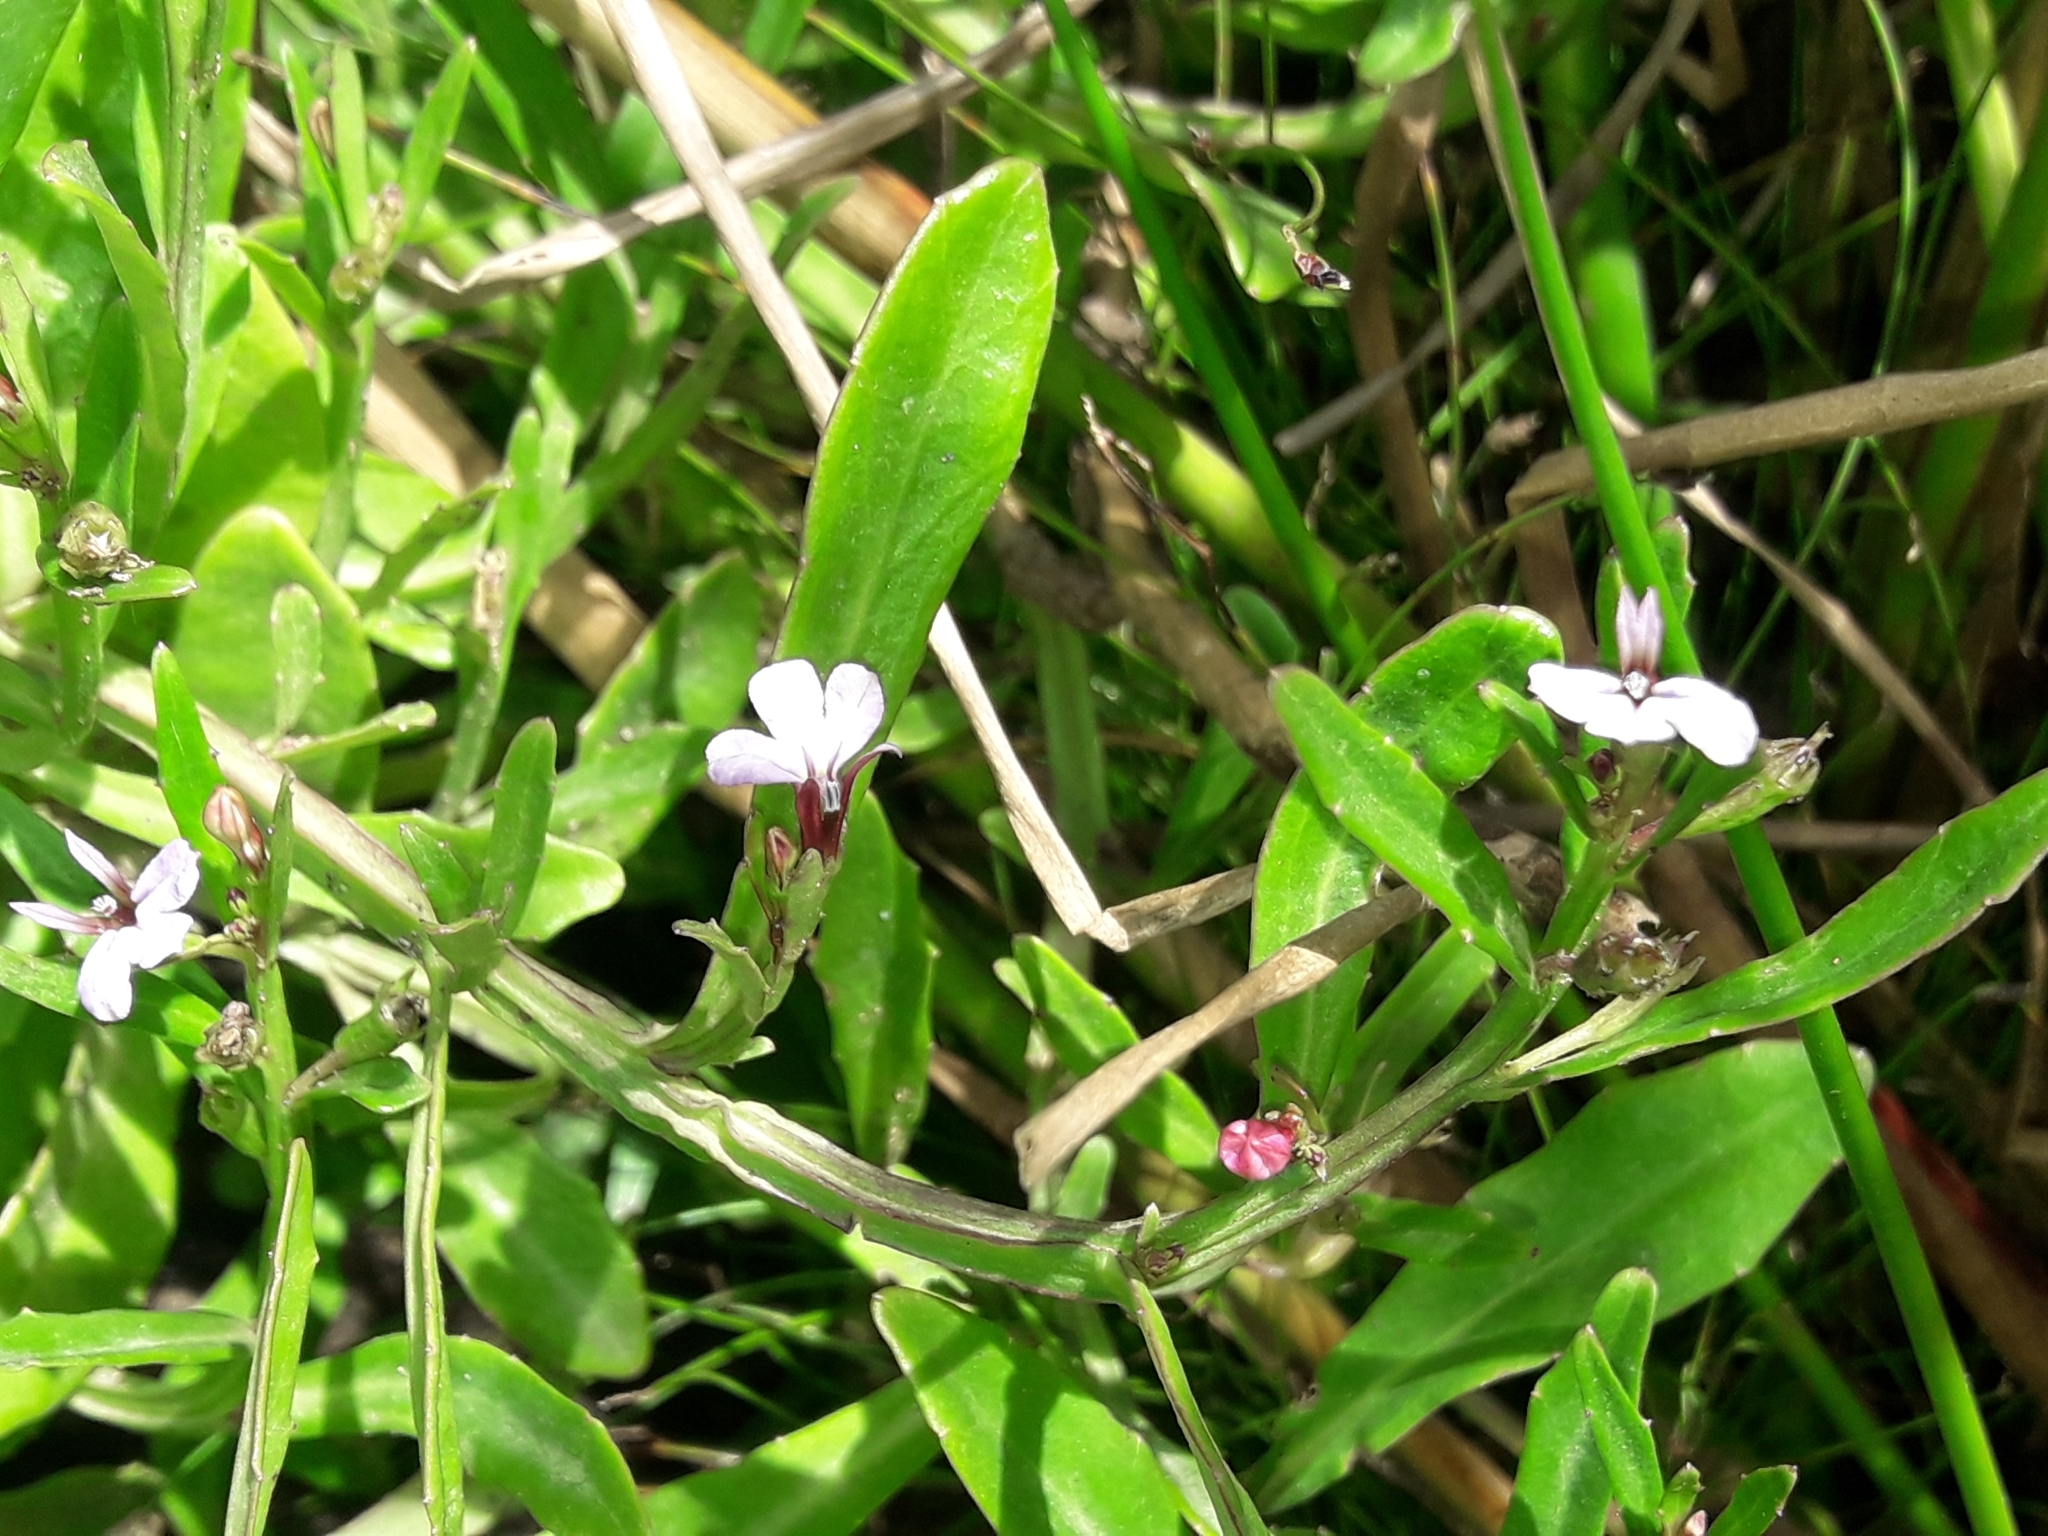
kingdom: Plantae
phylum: Tracheophyta
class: Magnoliopsida
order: Asterales
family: Campanulaceae
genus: Lobelia
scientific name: Lobelia anceps
